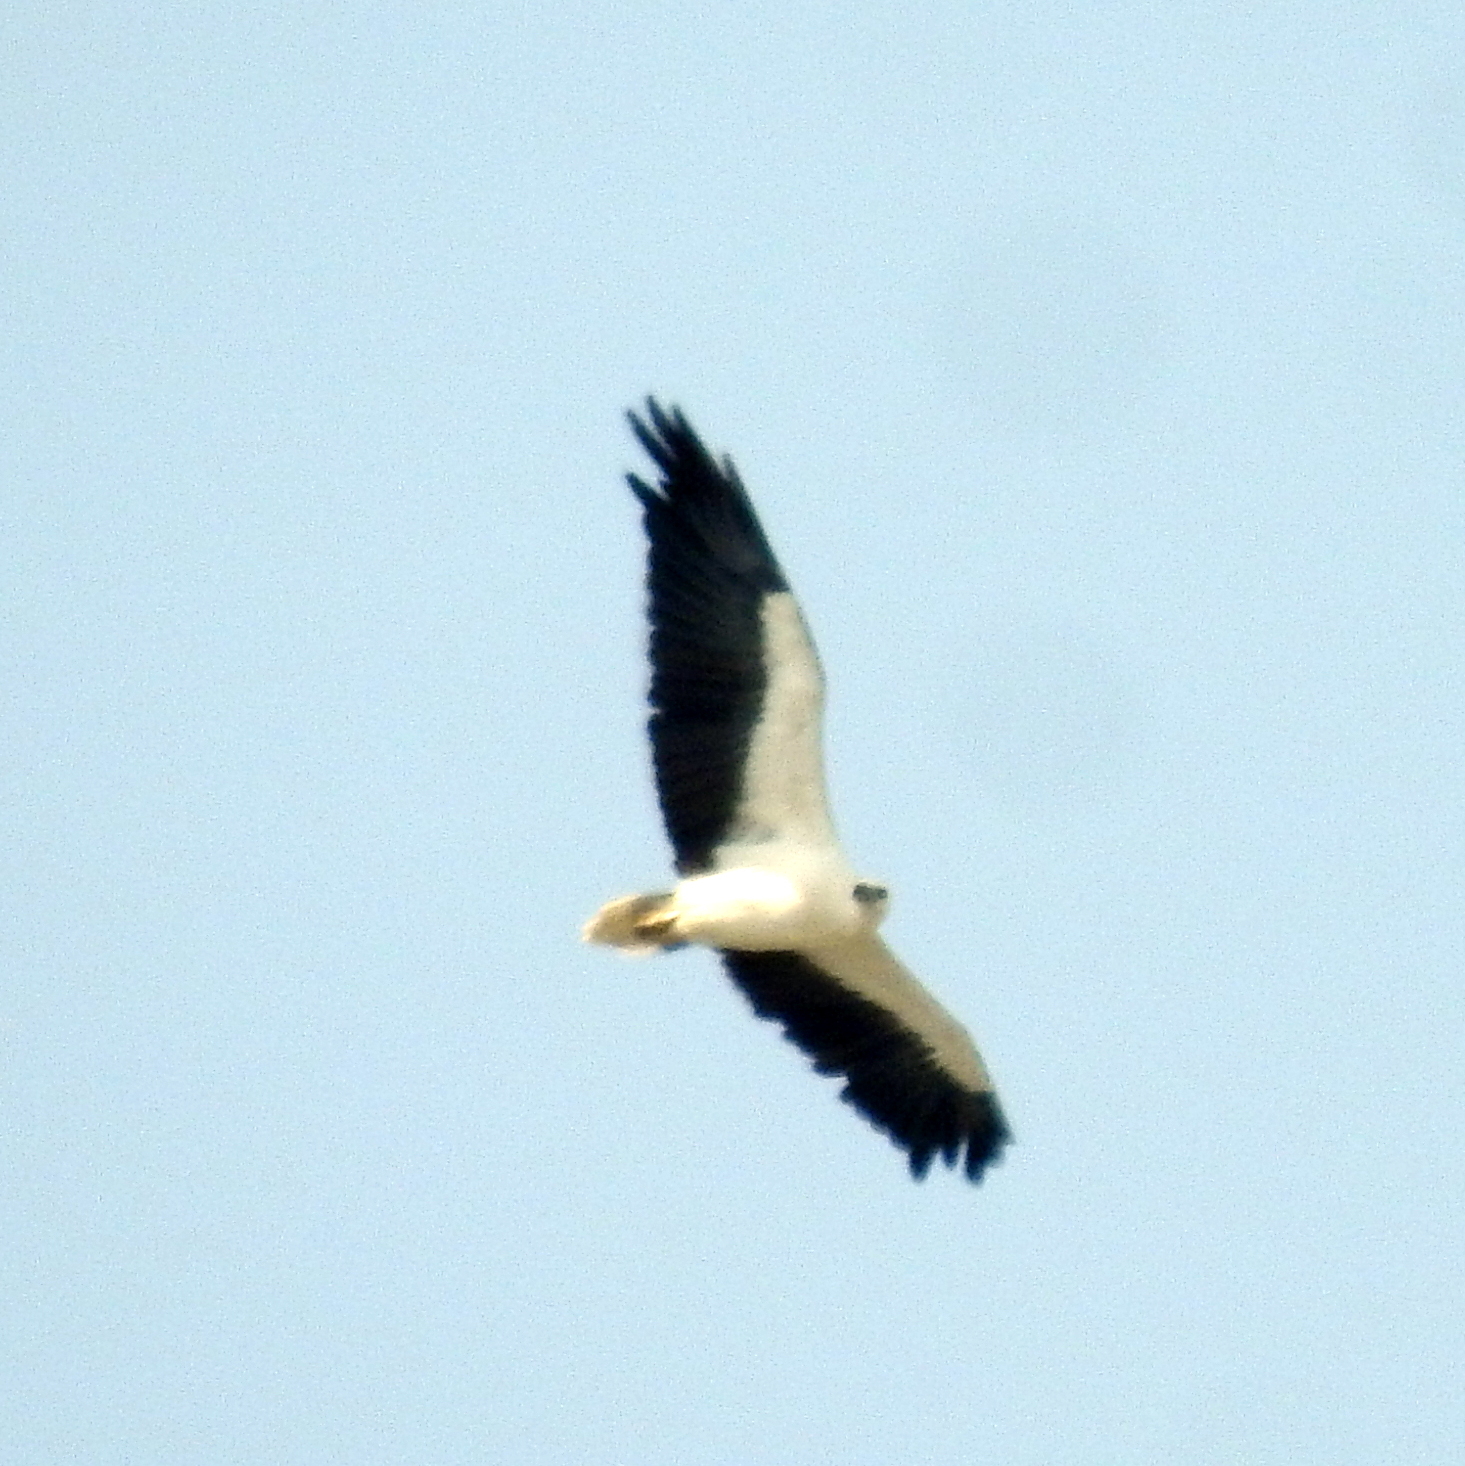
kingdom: Animalia
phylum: Chordata
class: Aves
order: Accipitriformes
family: Accipitridae
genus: Haliaeetus
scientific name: Haliaeetus leucogaster
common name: White-bellied sea eagle
